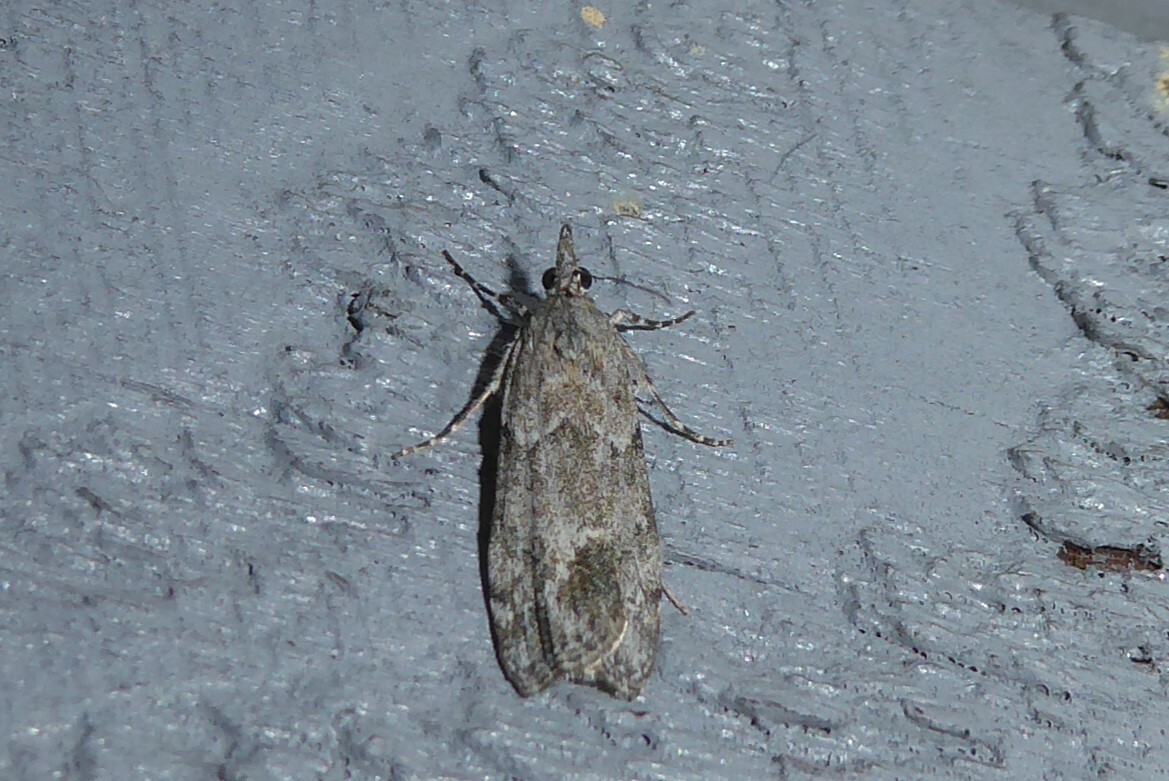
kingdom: Animalia
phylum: Arthropoda
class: Insecta
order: Lepidoptera
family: Crambidae
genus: Eudonia
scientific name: Eudonia rakaiensis
